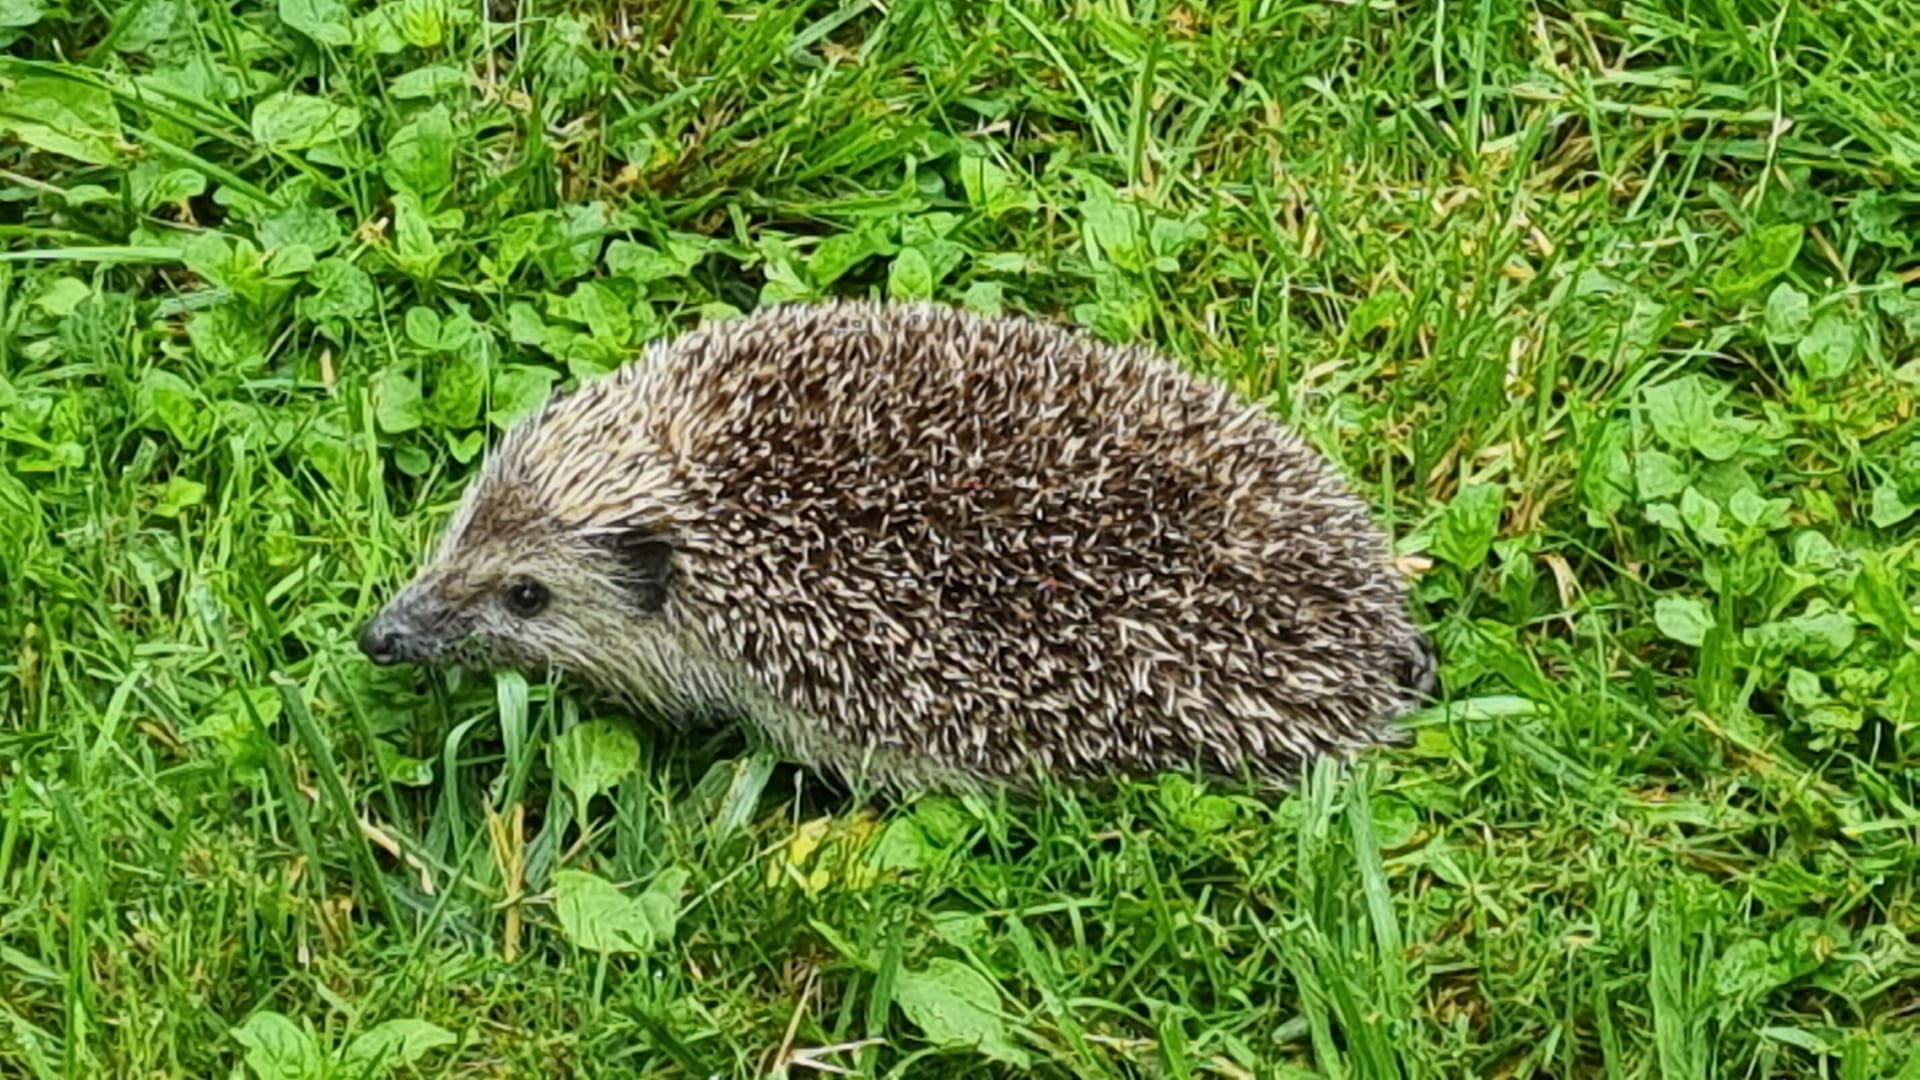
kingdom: Animalia
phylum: Chordata
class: Mammalia
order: Erinaceomorpha
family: Erinaceidae
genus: Erinaceus
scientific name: Erinaceus europaeus
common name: West european hedgehog
